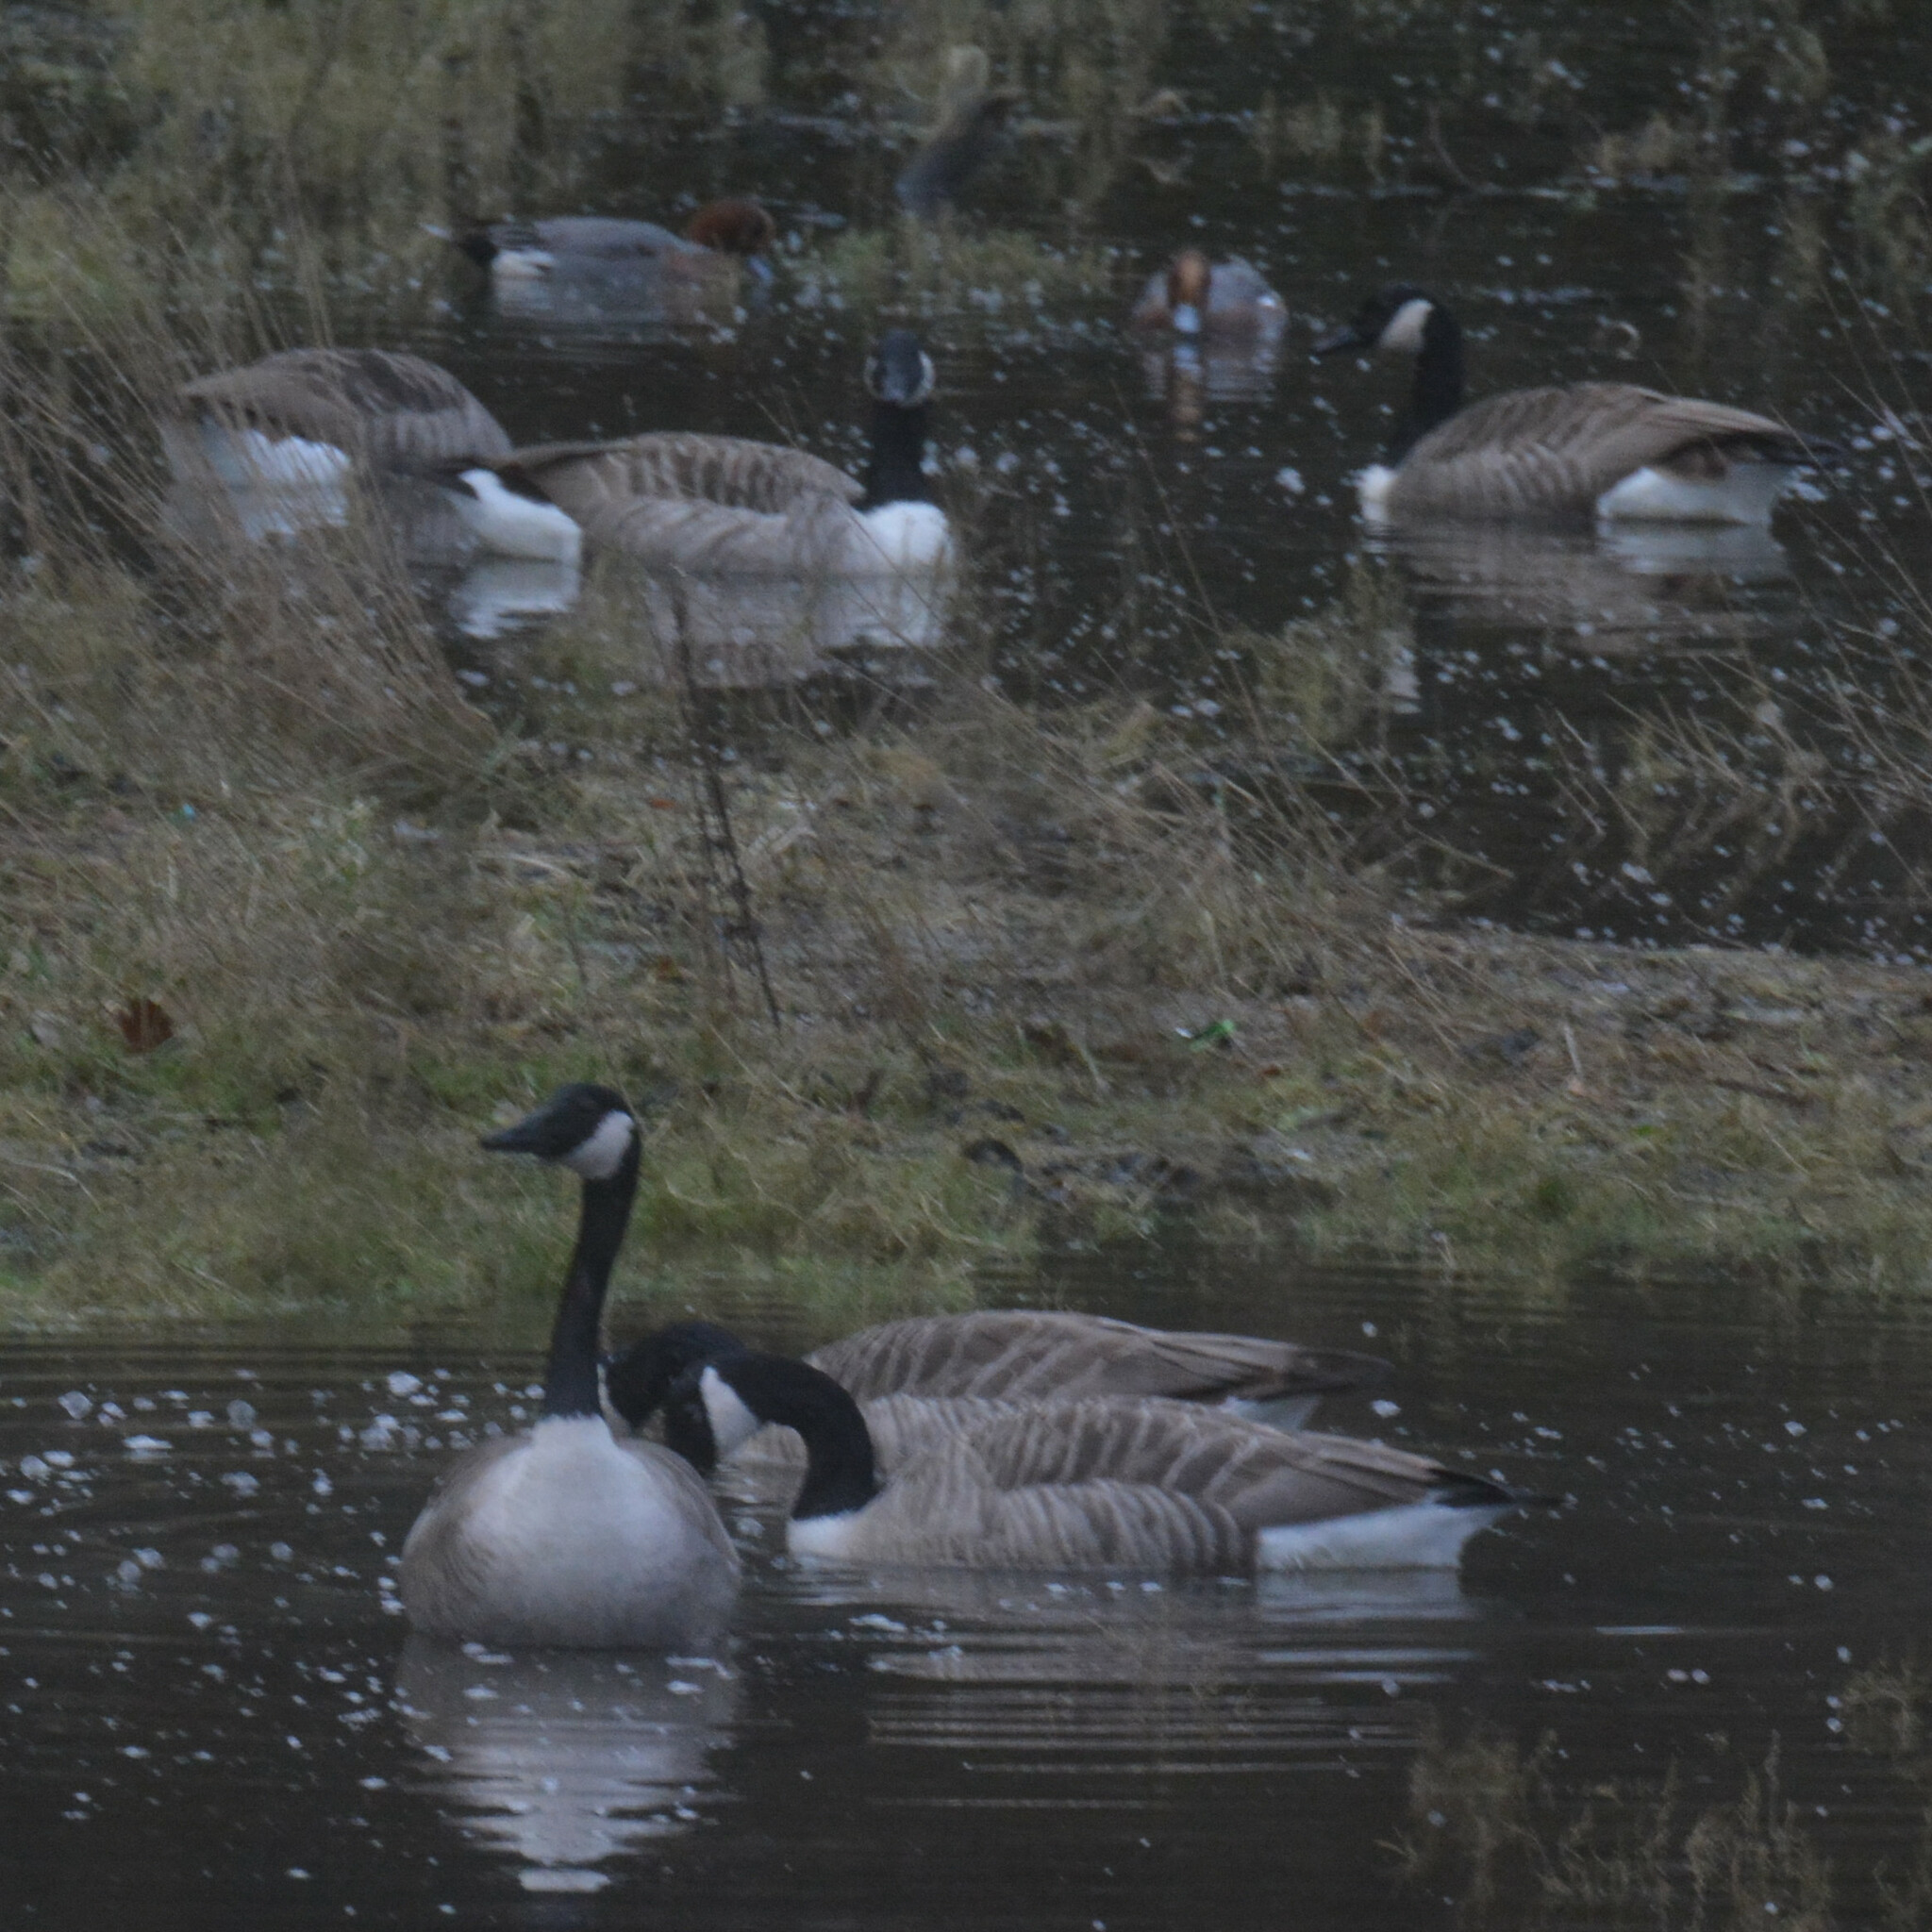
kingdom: Animalia
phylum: Chordata
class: Aves
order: Anseriformes
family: Anatidae
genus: Branta
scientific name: Branta canadensis
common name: Canada goose
